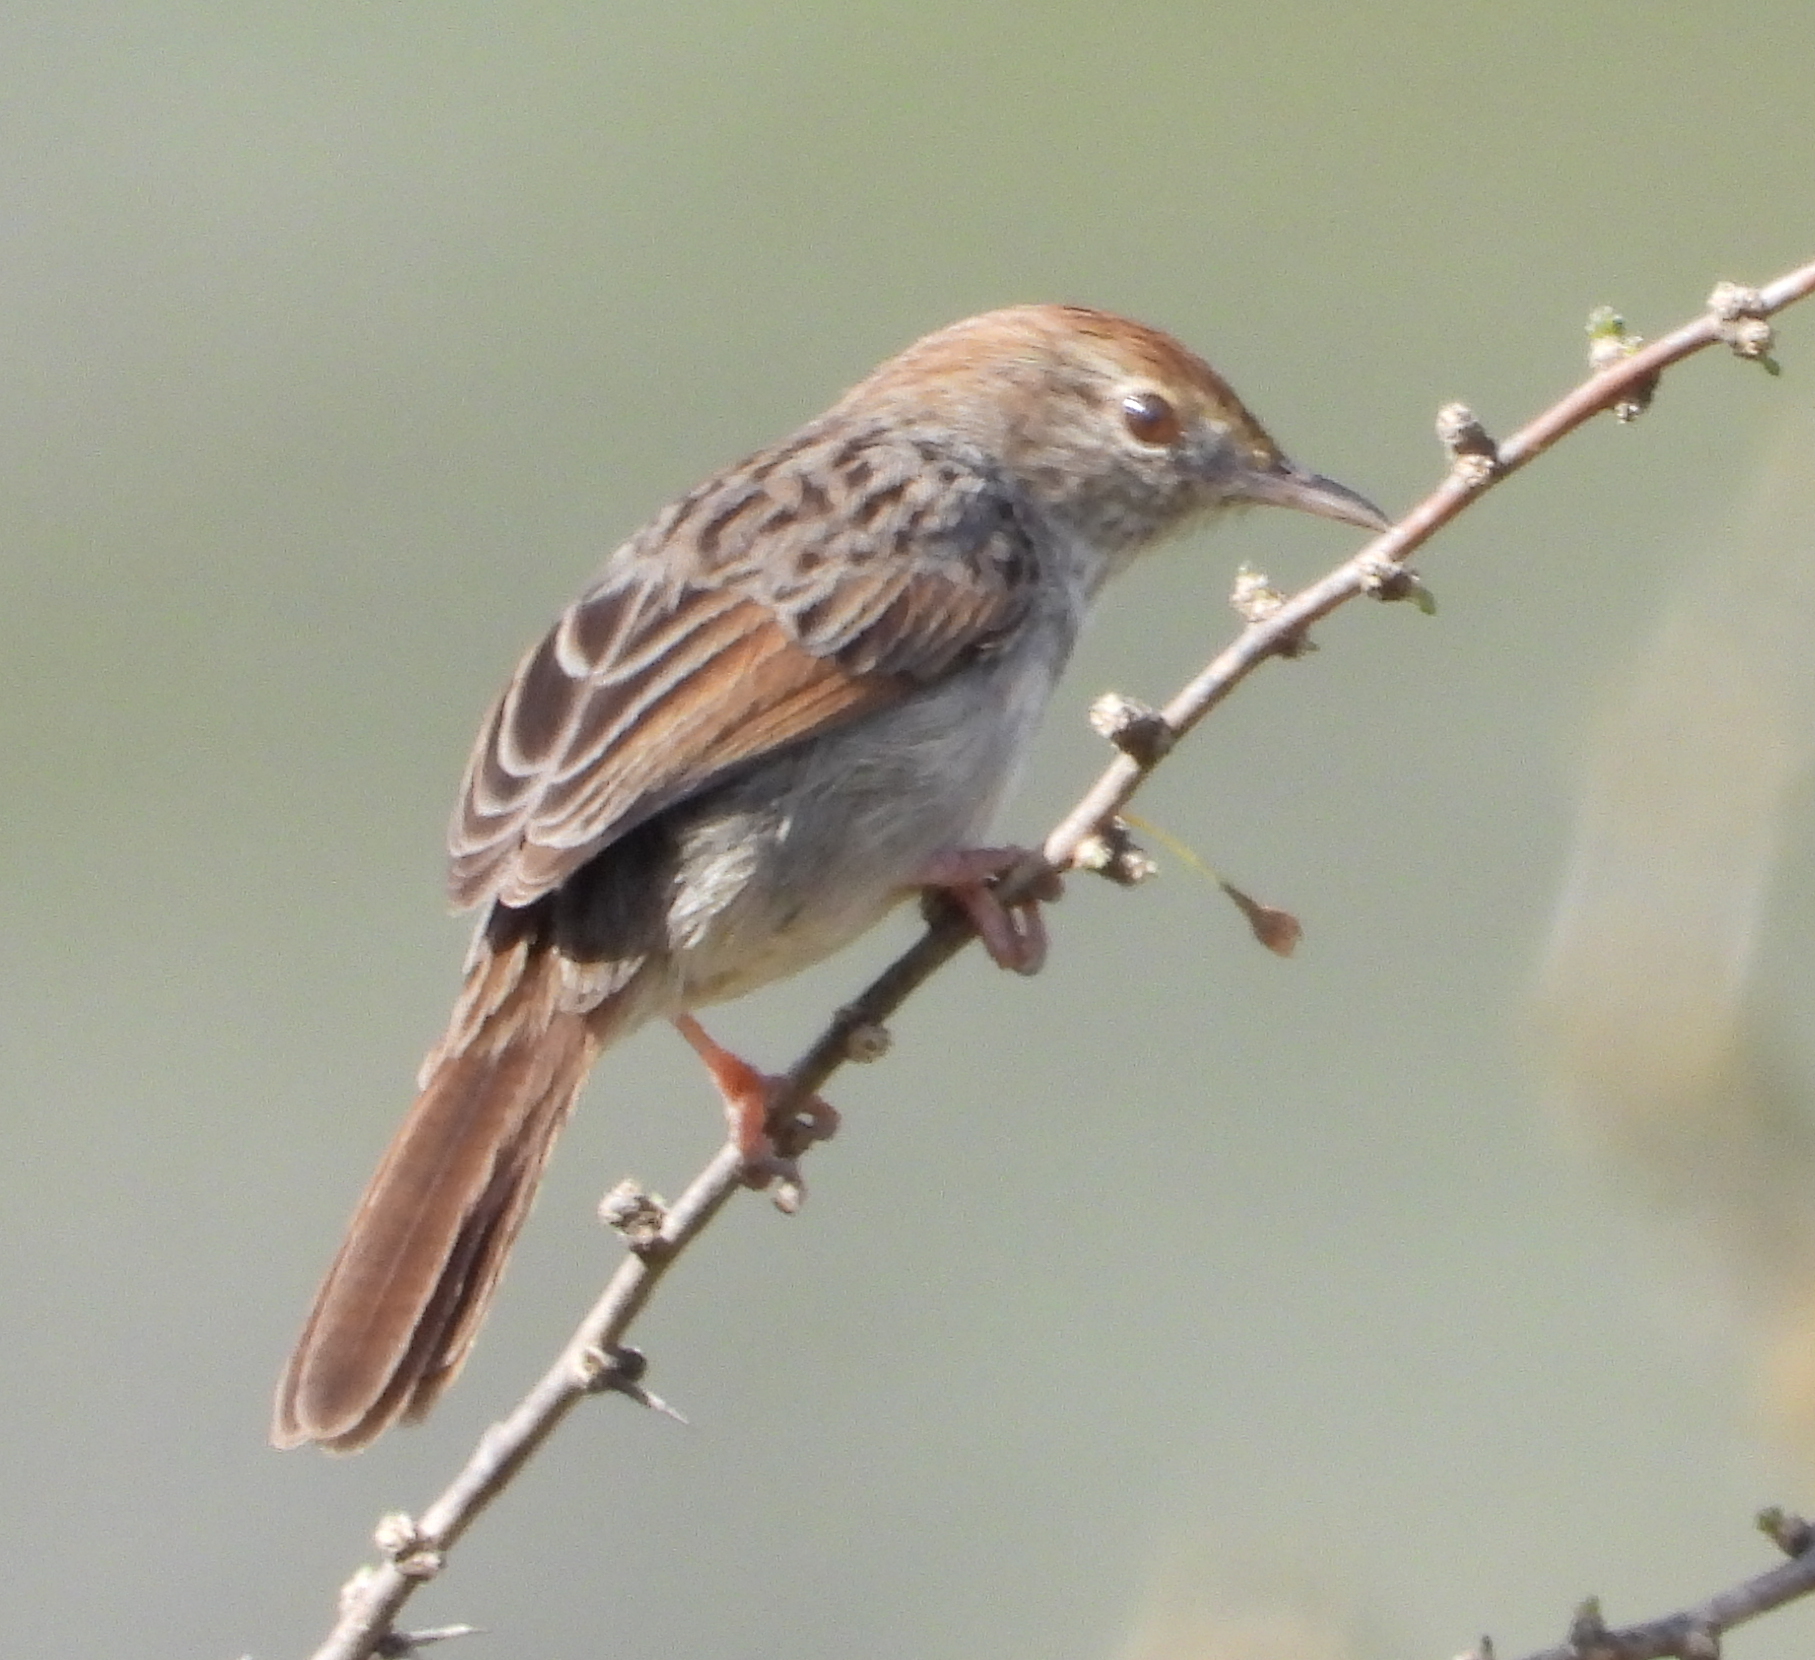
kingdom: Animalia
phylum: Chordata
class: Aves
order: Passeriformes
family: Cisticolidae
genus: Cisticola
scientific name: Cisticola subruficapilla
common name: Grey-backed cisticola
